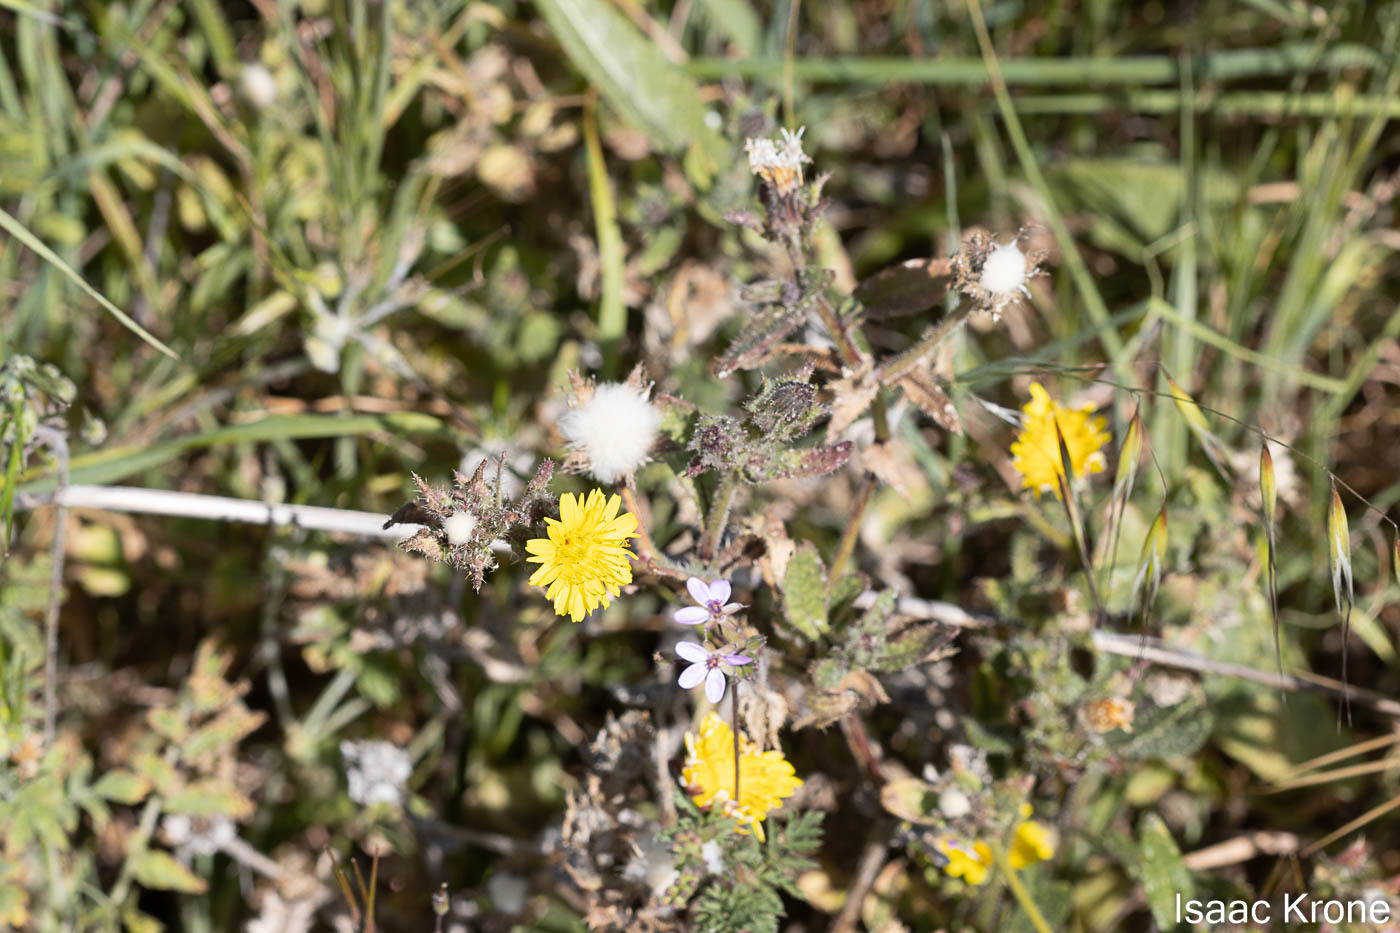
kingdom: Plantae
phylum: Tracheophyta
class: Magnoliopsida
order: Asterales
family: Asteraceae
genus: Helminthotheca
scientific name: Helminthotheca echioides
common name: Ox-tongue
